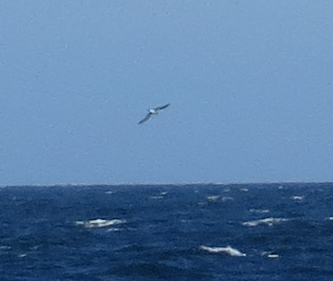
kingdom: Animalia
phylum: Chordata
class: Aves
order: Phaethontiformes
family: Phaethontidae
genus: Phaethon
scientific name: Phaethon aethereus
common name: Red-billed tropicbird
